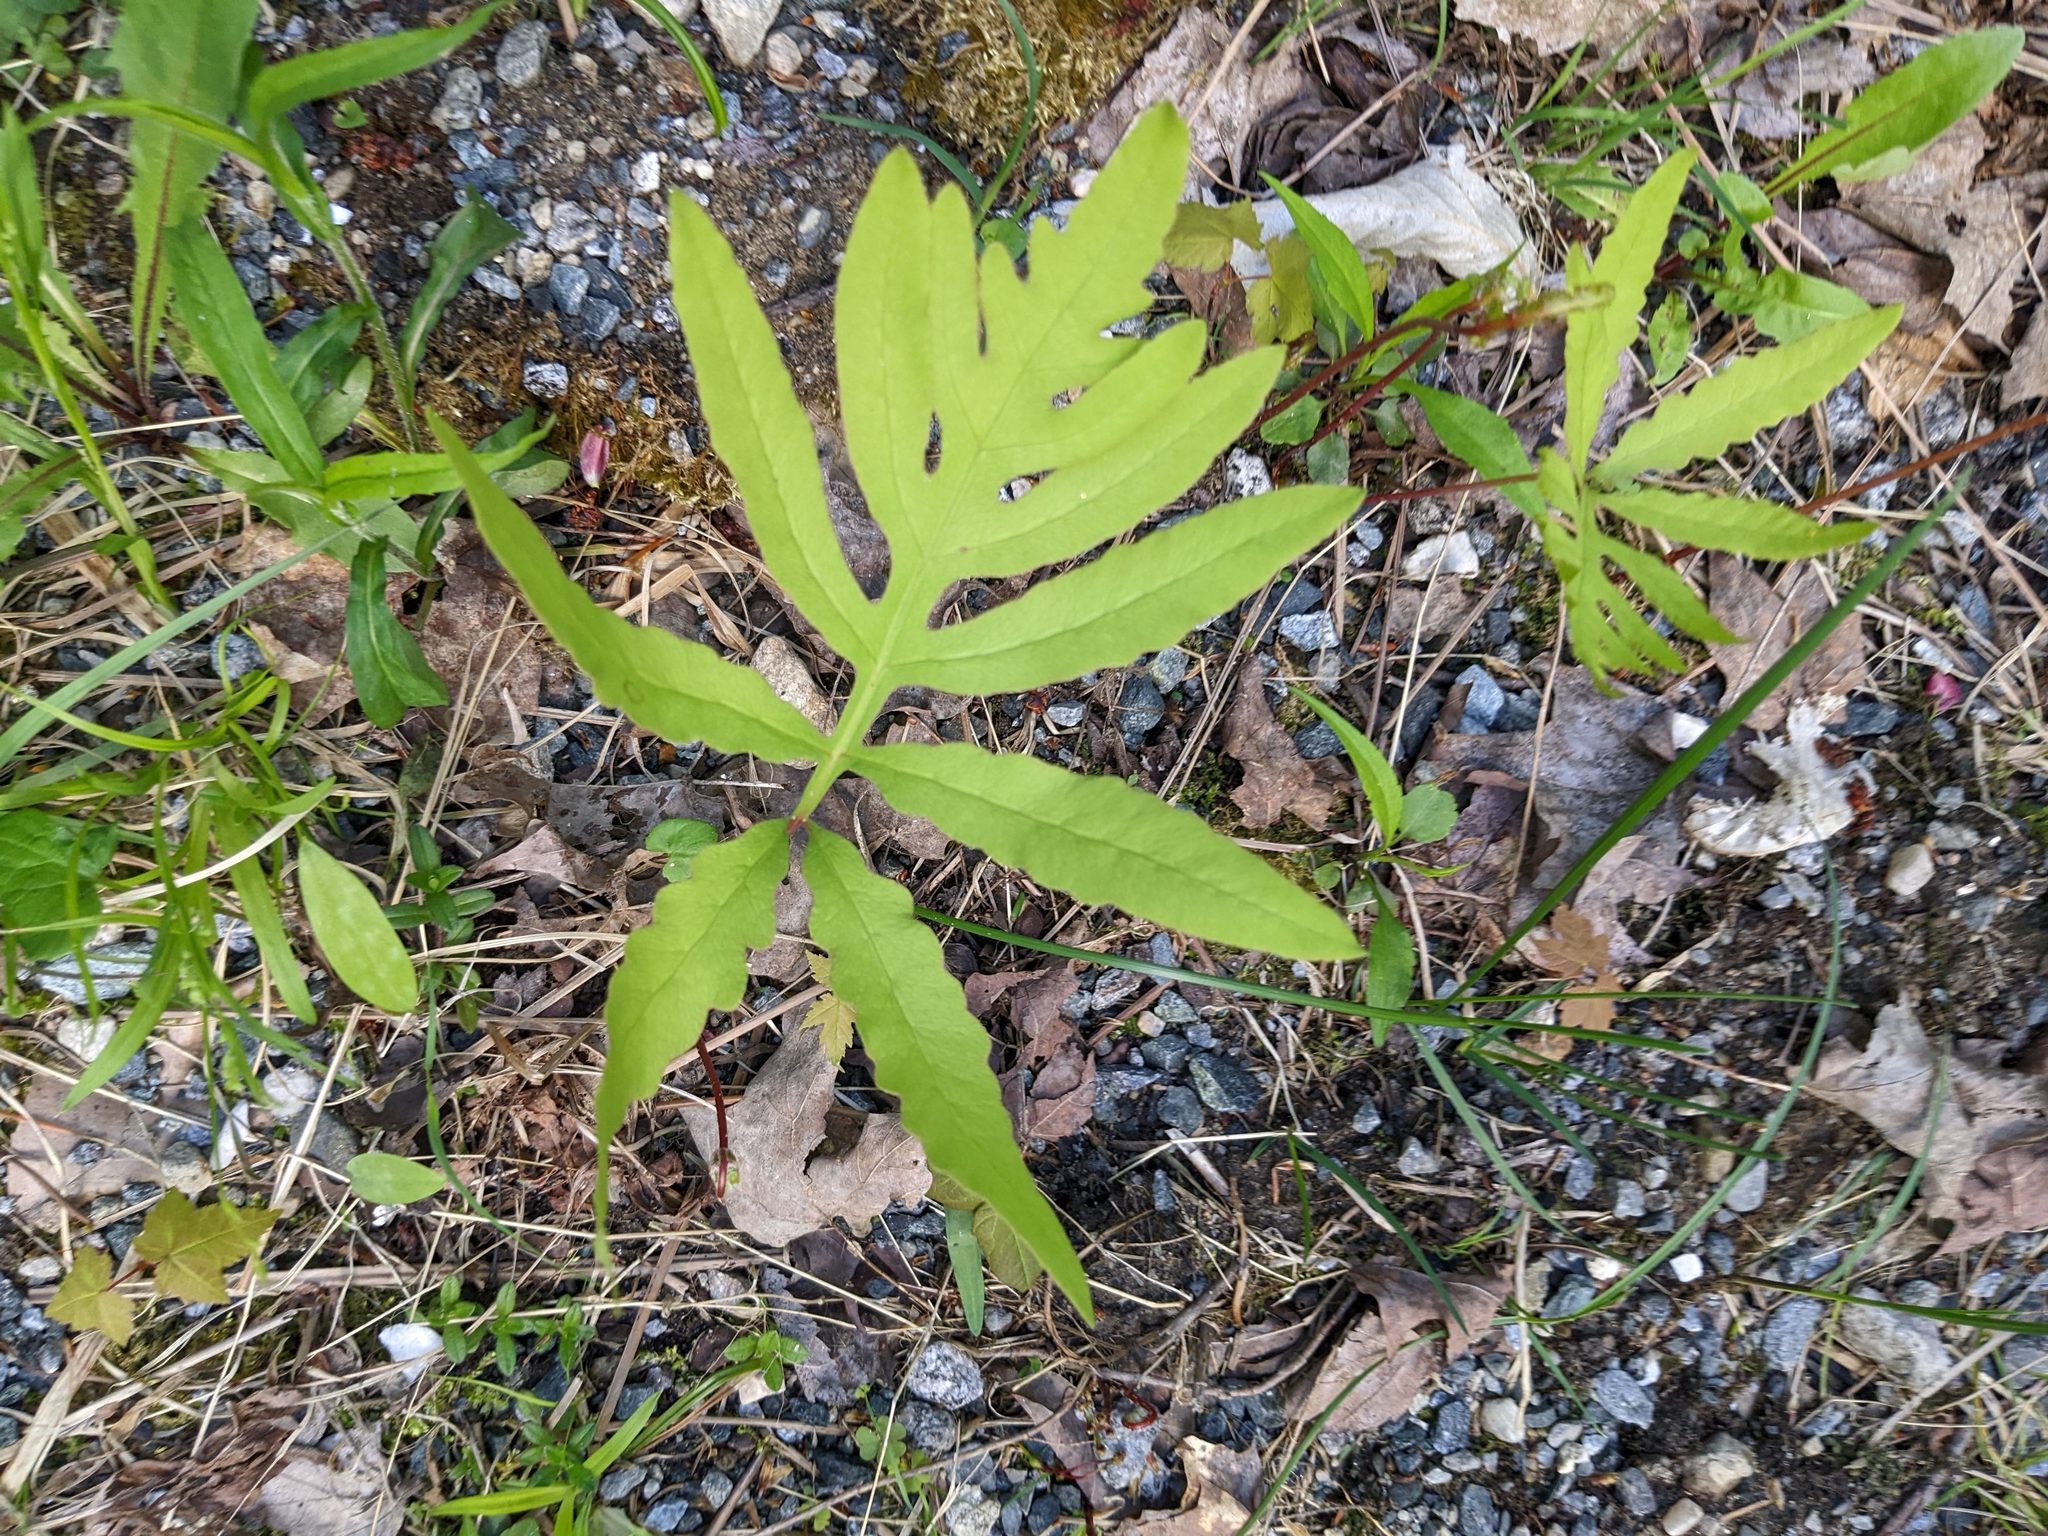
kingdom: Plantae
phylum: Tracheophyta
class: Polypodiopsida
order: Polypodiales
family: Onocleaceae
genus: Onoclea
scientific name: Onoclea sensibilis
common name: Sensitive fern
